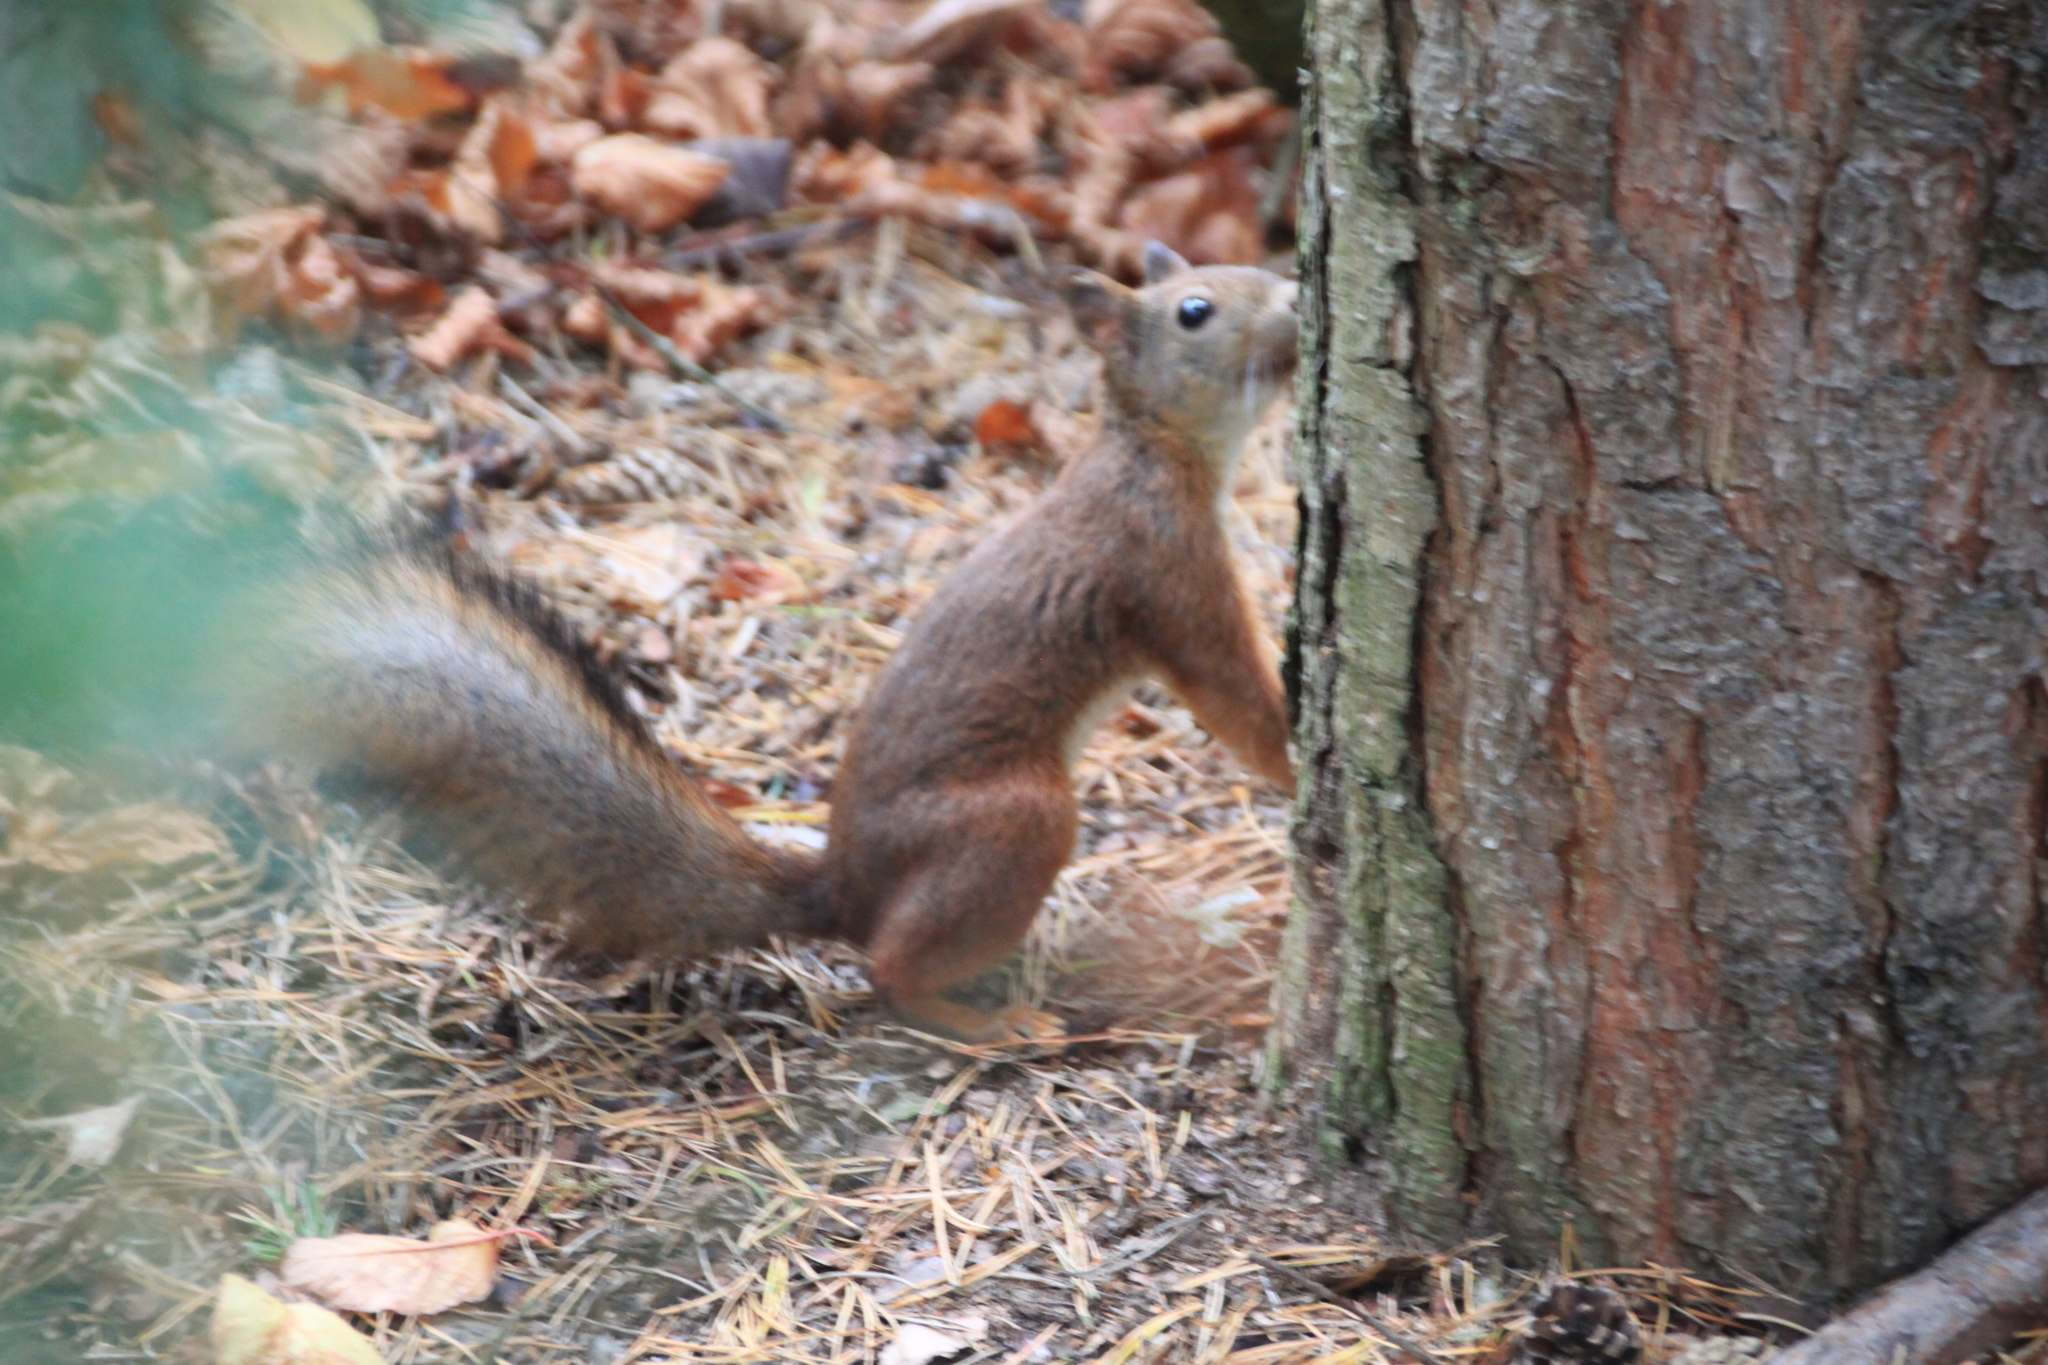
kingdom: Animalia
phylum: Chordata
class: Mammalia
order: Rodentia
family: Sciuridae
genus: Sciurus
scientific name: Sciurus vulgaris
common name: Eurasian red squirrel
